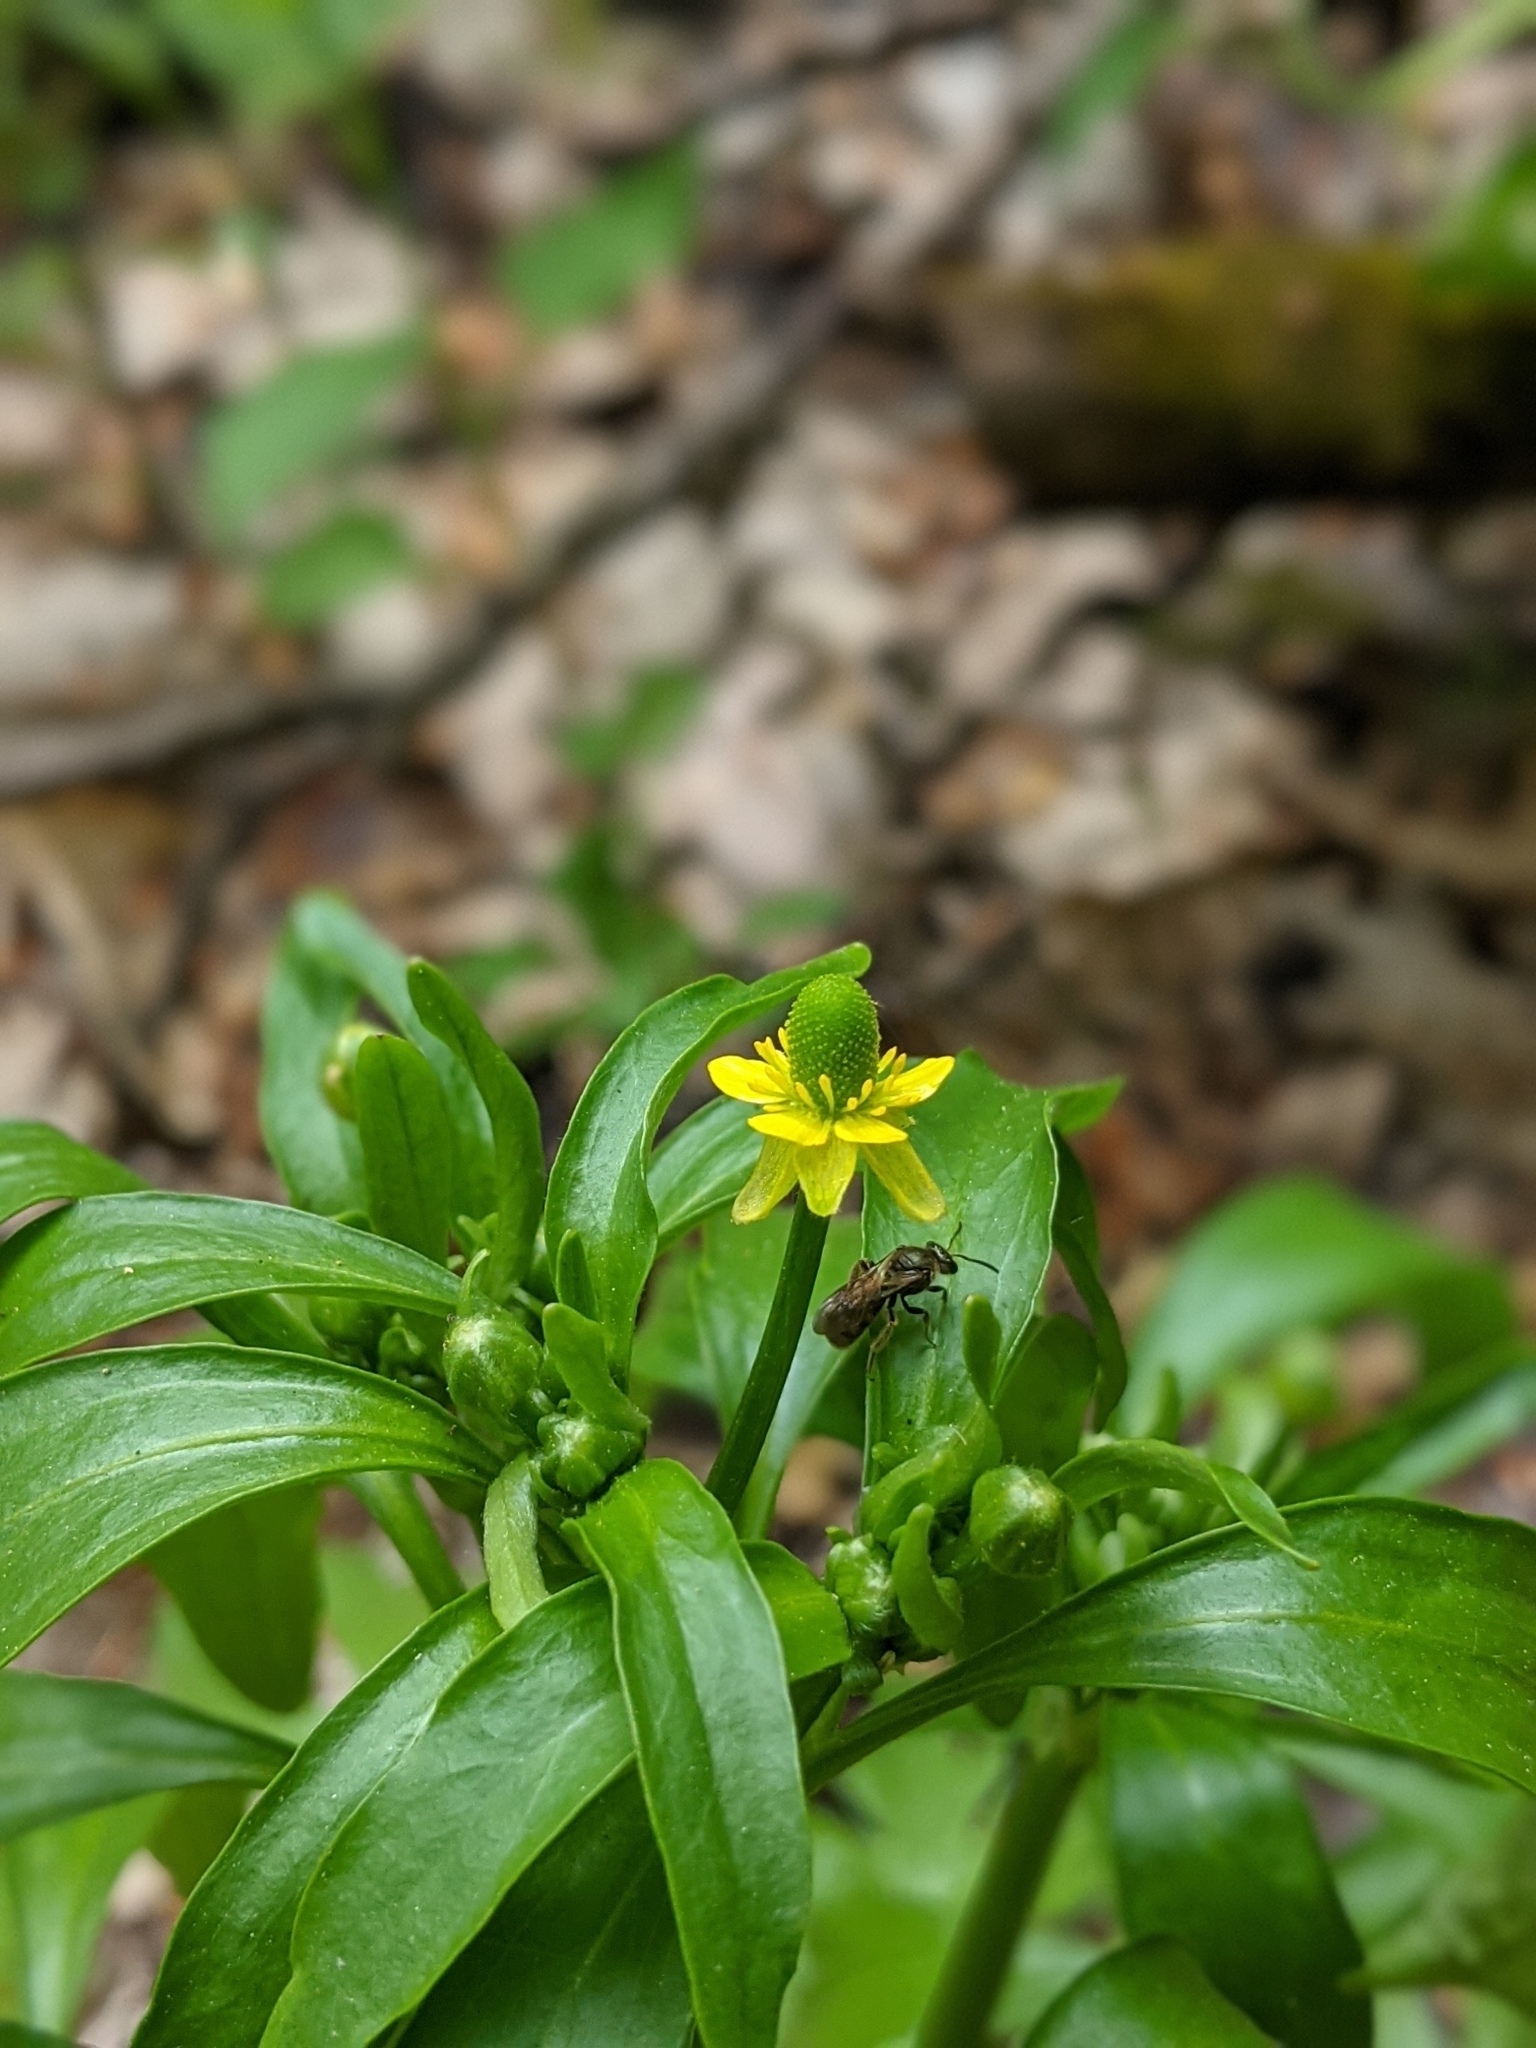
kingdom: Plantae
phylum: Tracheophyta
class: Magnoliopsida
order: Ranunculales
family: Ranunculaceae
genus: Ranunculus
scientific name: Ranunculus sceleratus
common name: Celery-leaved buttercup
